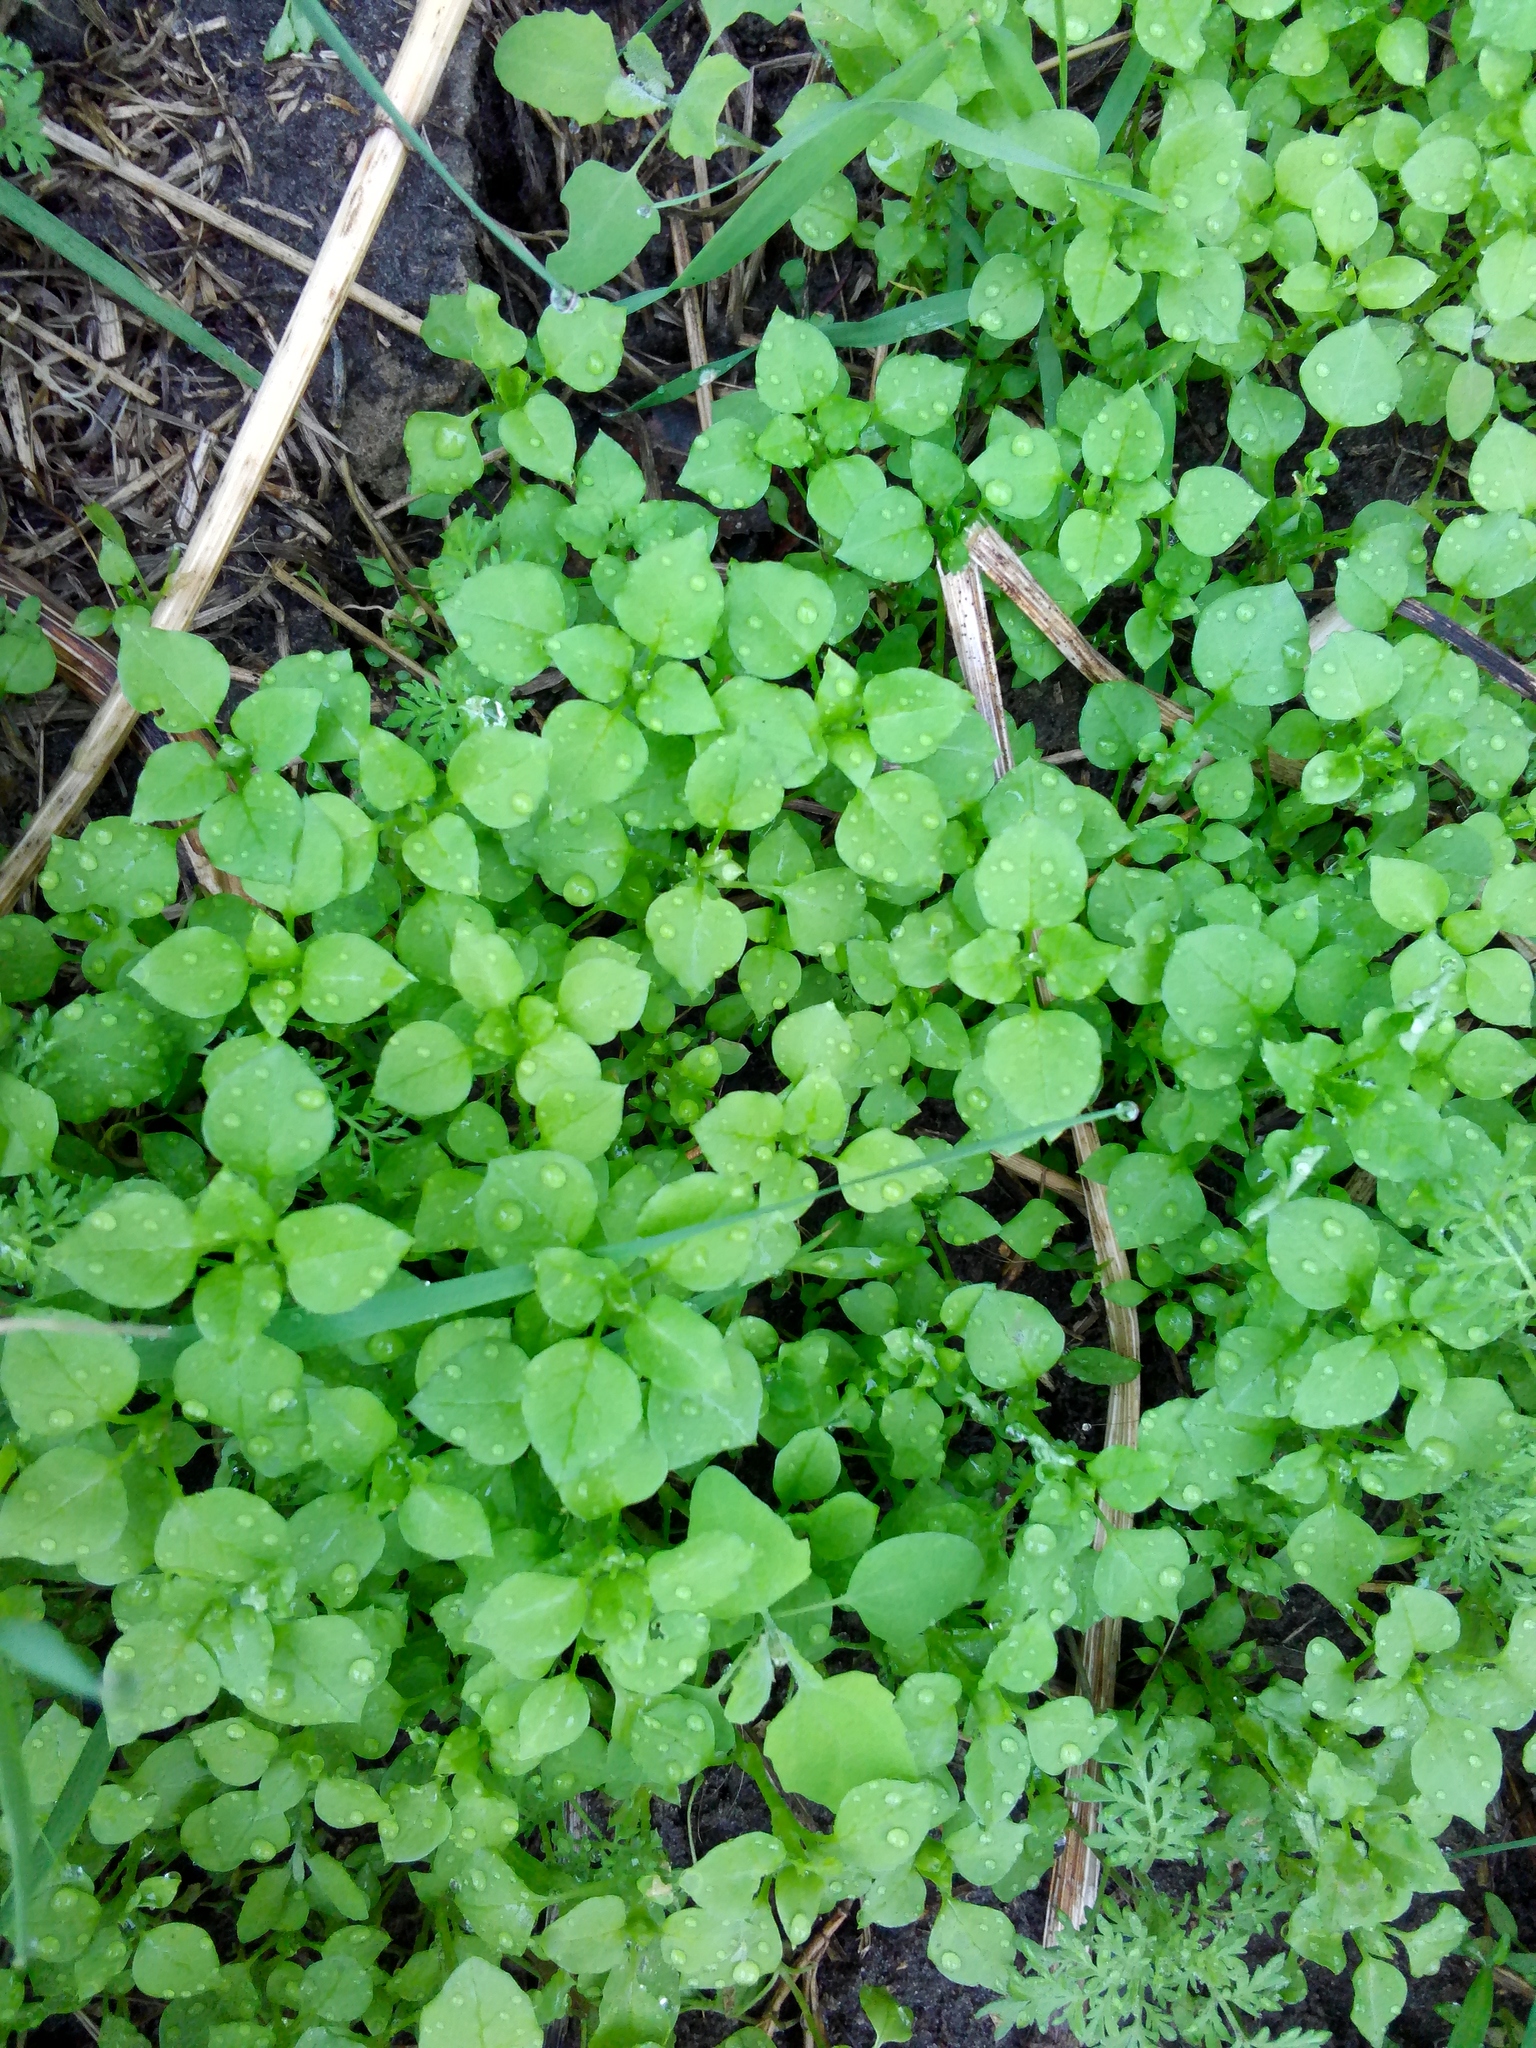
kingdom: Plantae
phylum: Tracheophyta
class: Magnoliopsida
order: Caryophyllales
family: Caryophyllaceae
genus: Stellaria
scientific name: Stellaria media
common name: Common chickweed
